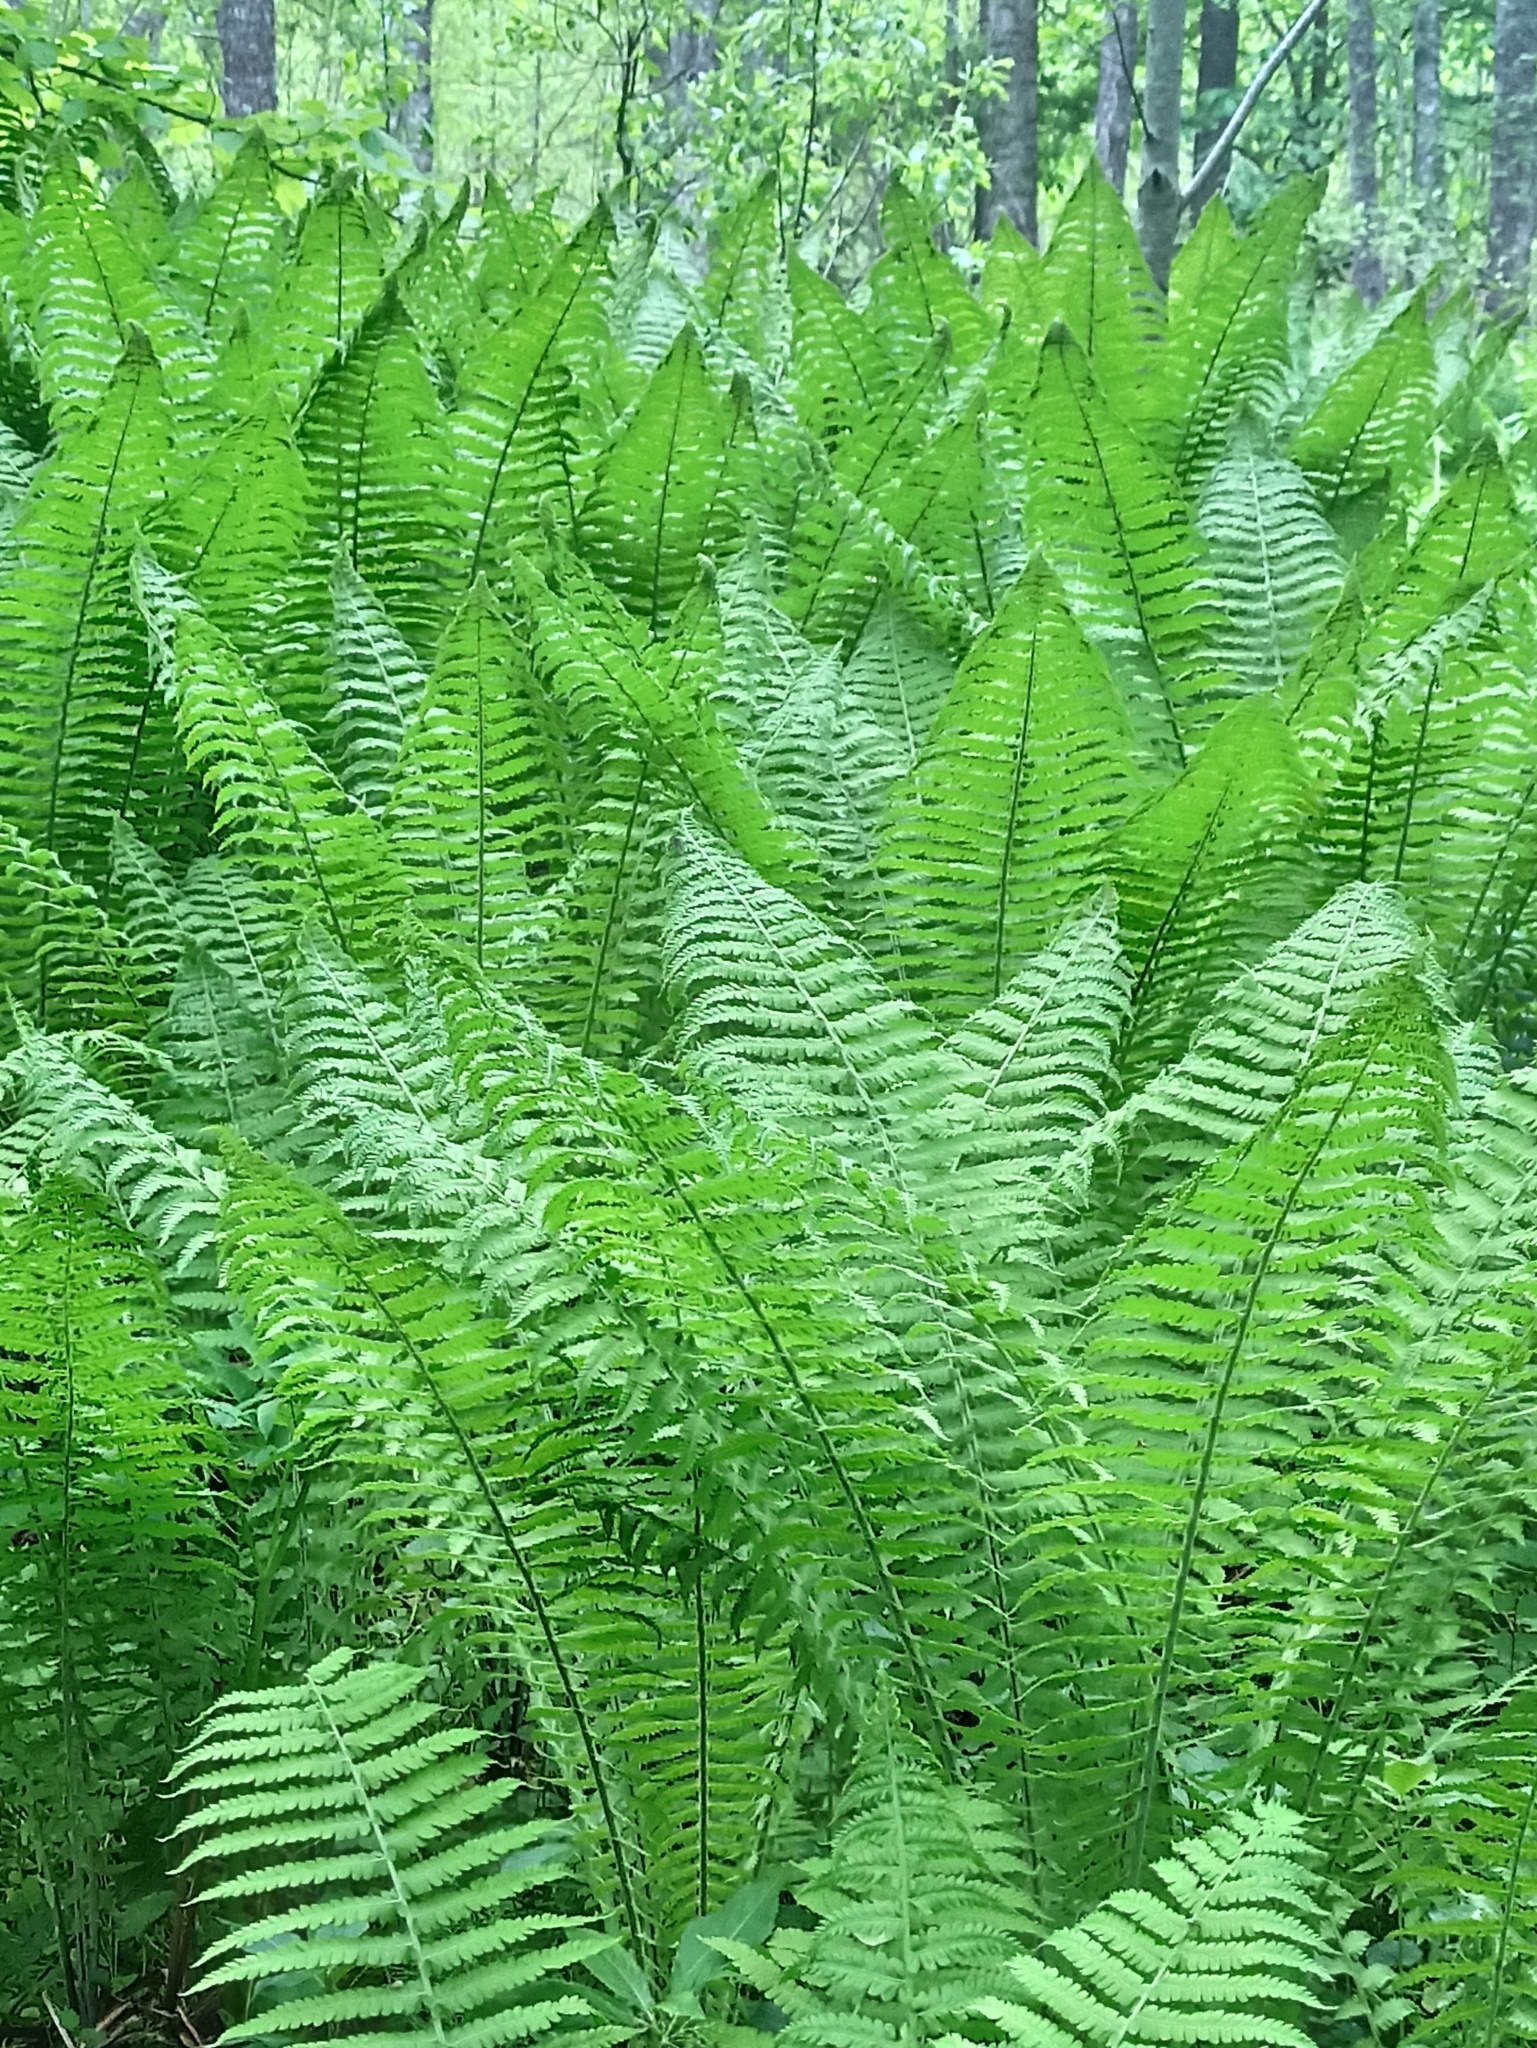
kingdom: Plantae
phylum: Tracheophyta
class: Polypodiopsida
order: Polypodiales
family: Onocleaceae
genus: Matteuccia
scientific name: Matteuccia struthiopteris
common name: Ostrich fern
